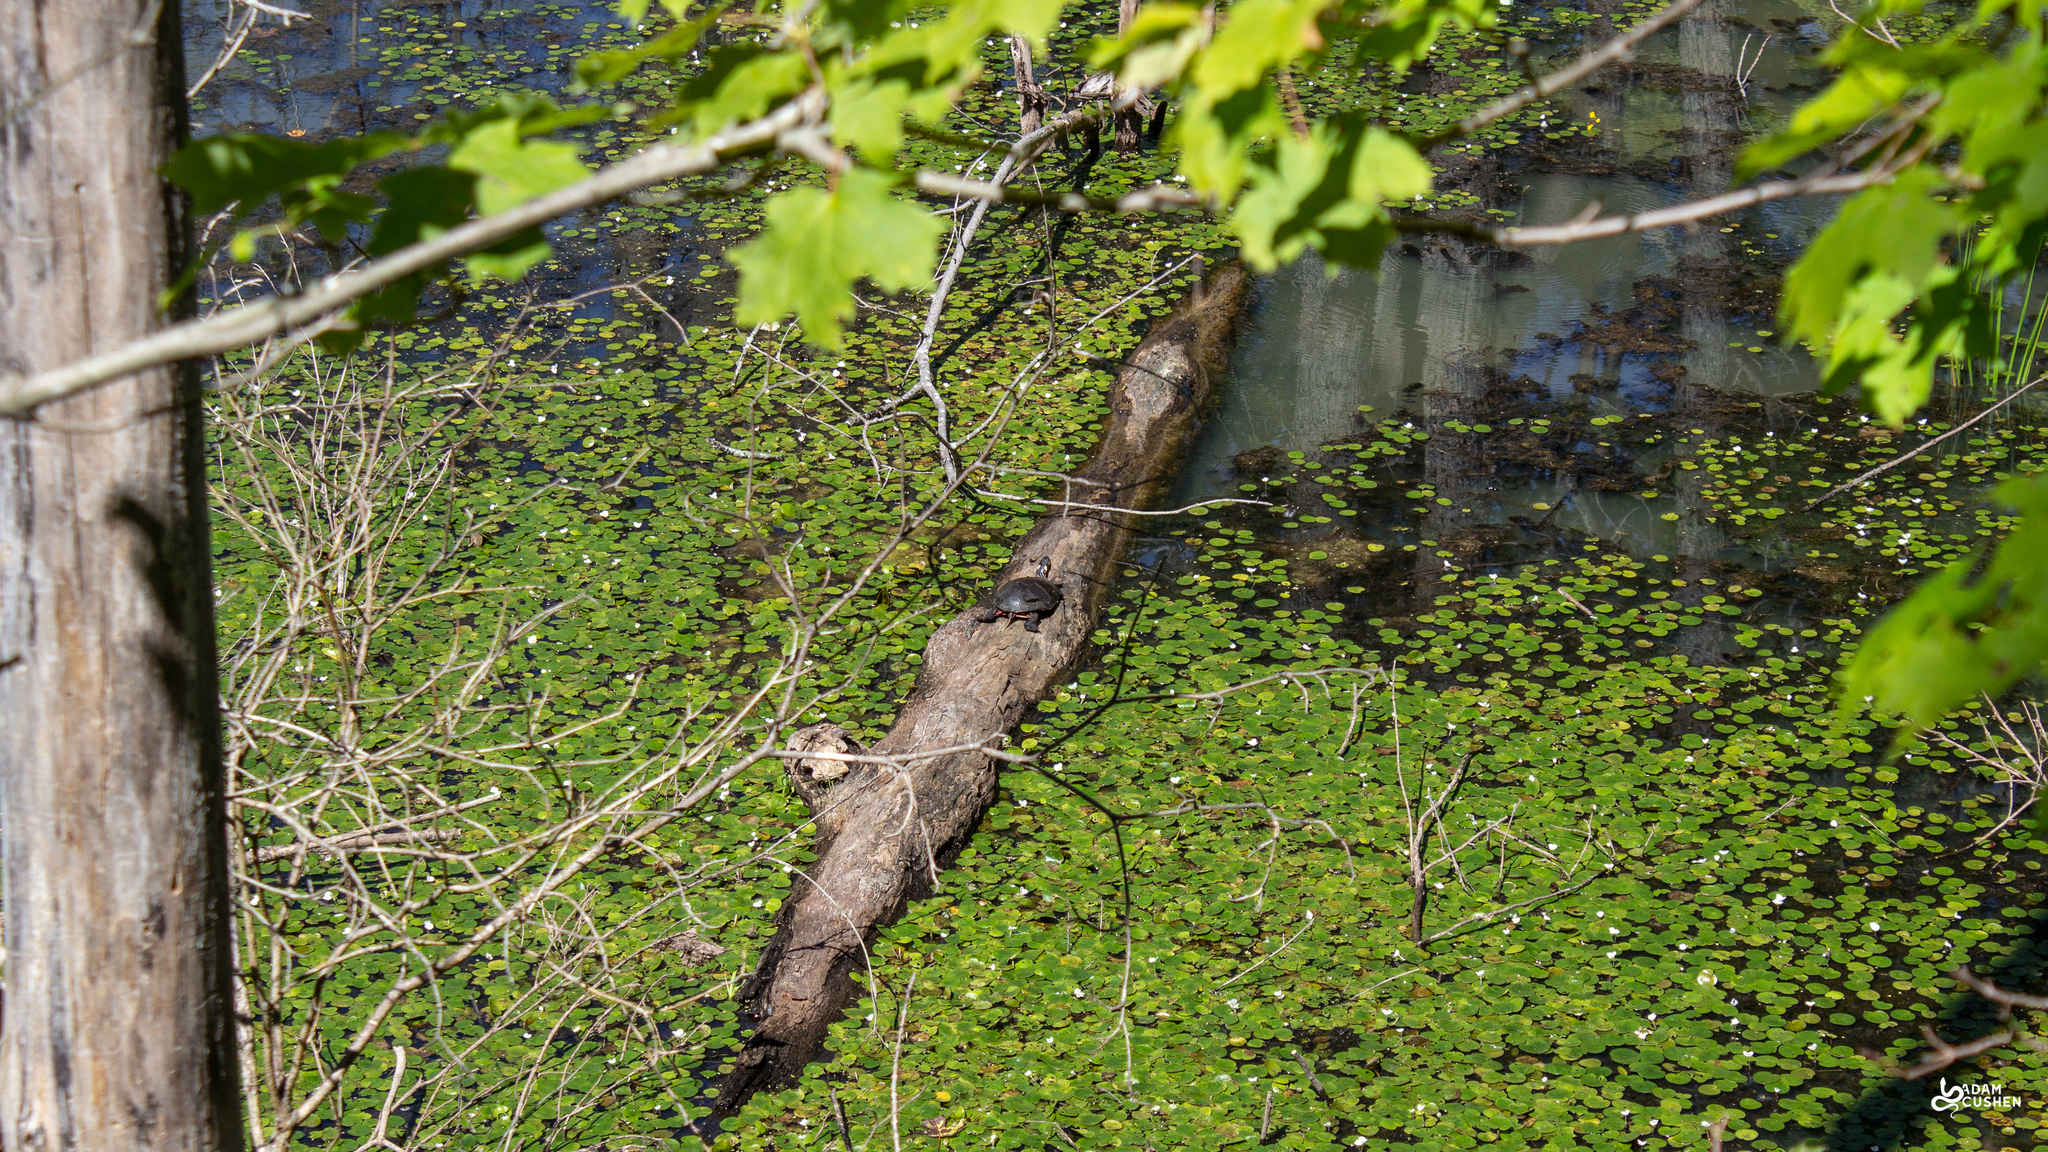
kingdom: Animalia
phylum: Chordata
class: Testudines
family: Emydidae
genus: Chrysemys
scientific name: Chrysemys picta
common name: Painted turtle
